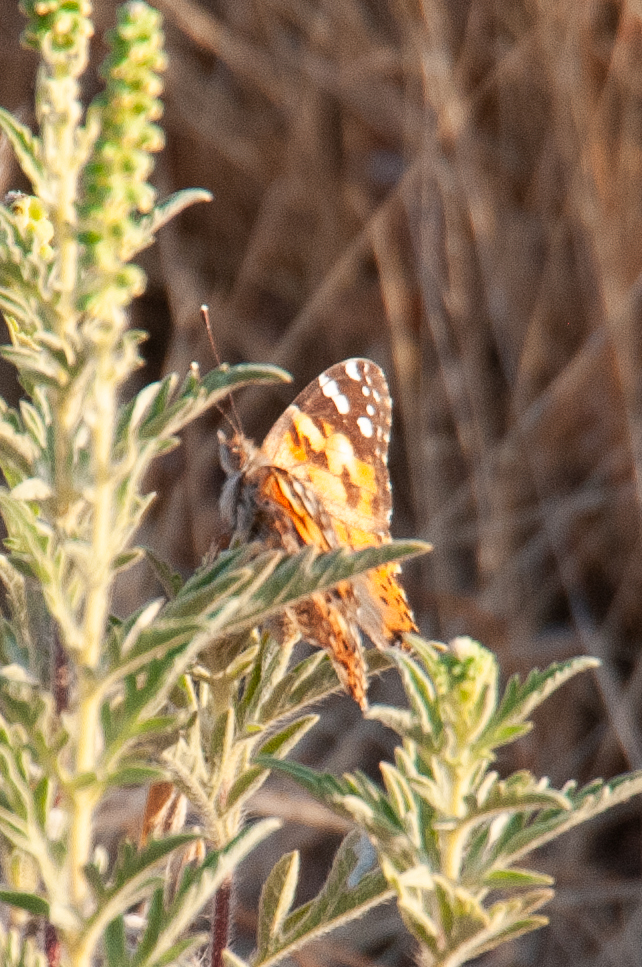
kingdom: Animalia
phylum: Arthropoda
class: Insecta
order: Lepidoptera
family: Nymphalidae
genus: Vanessa
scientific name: Vanessa cardui
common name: Painted lady
